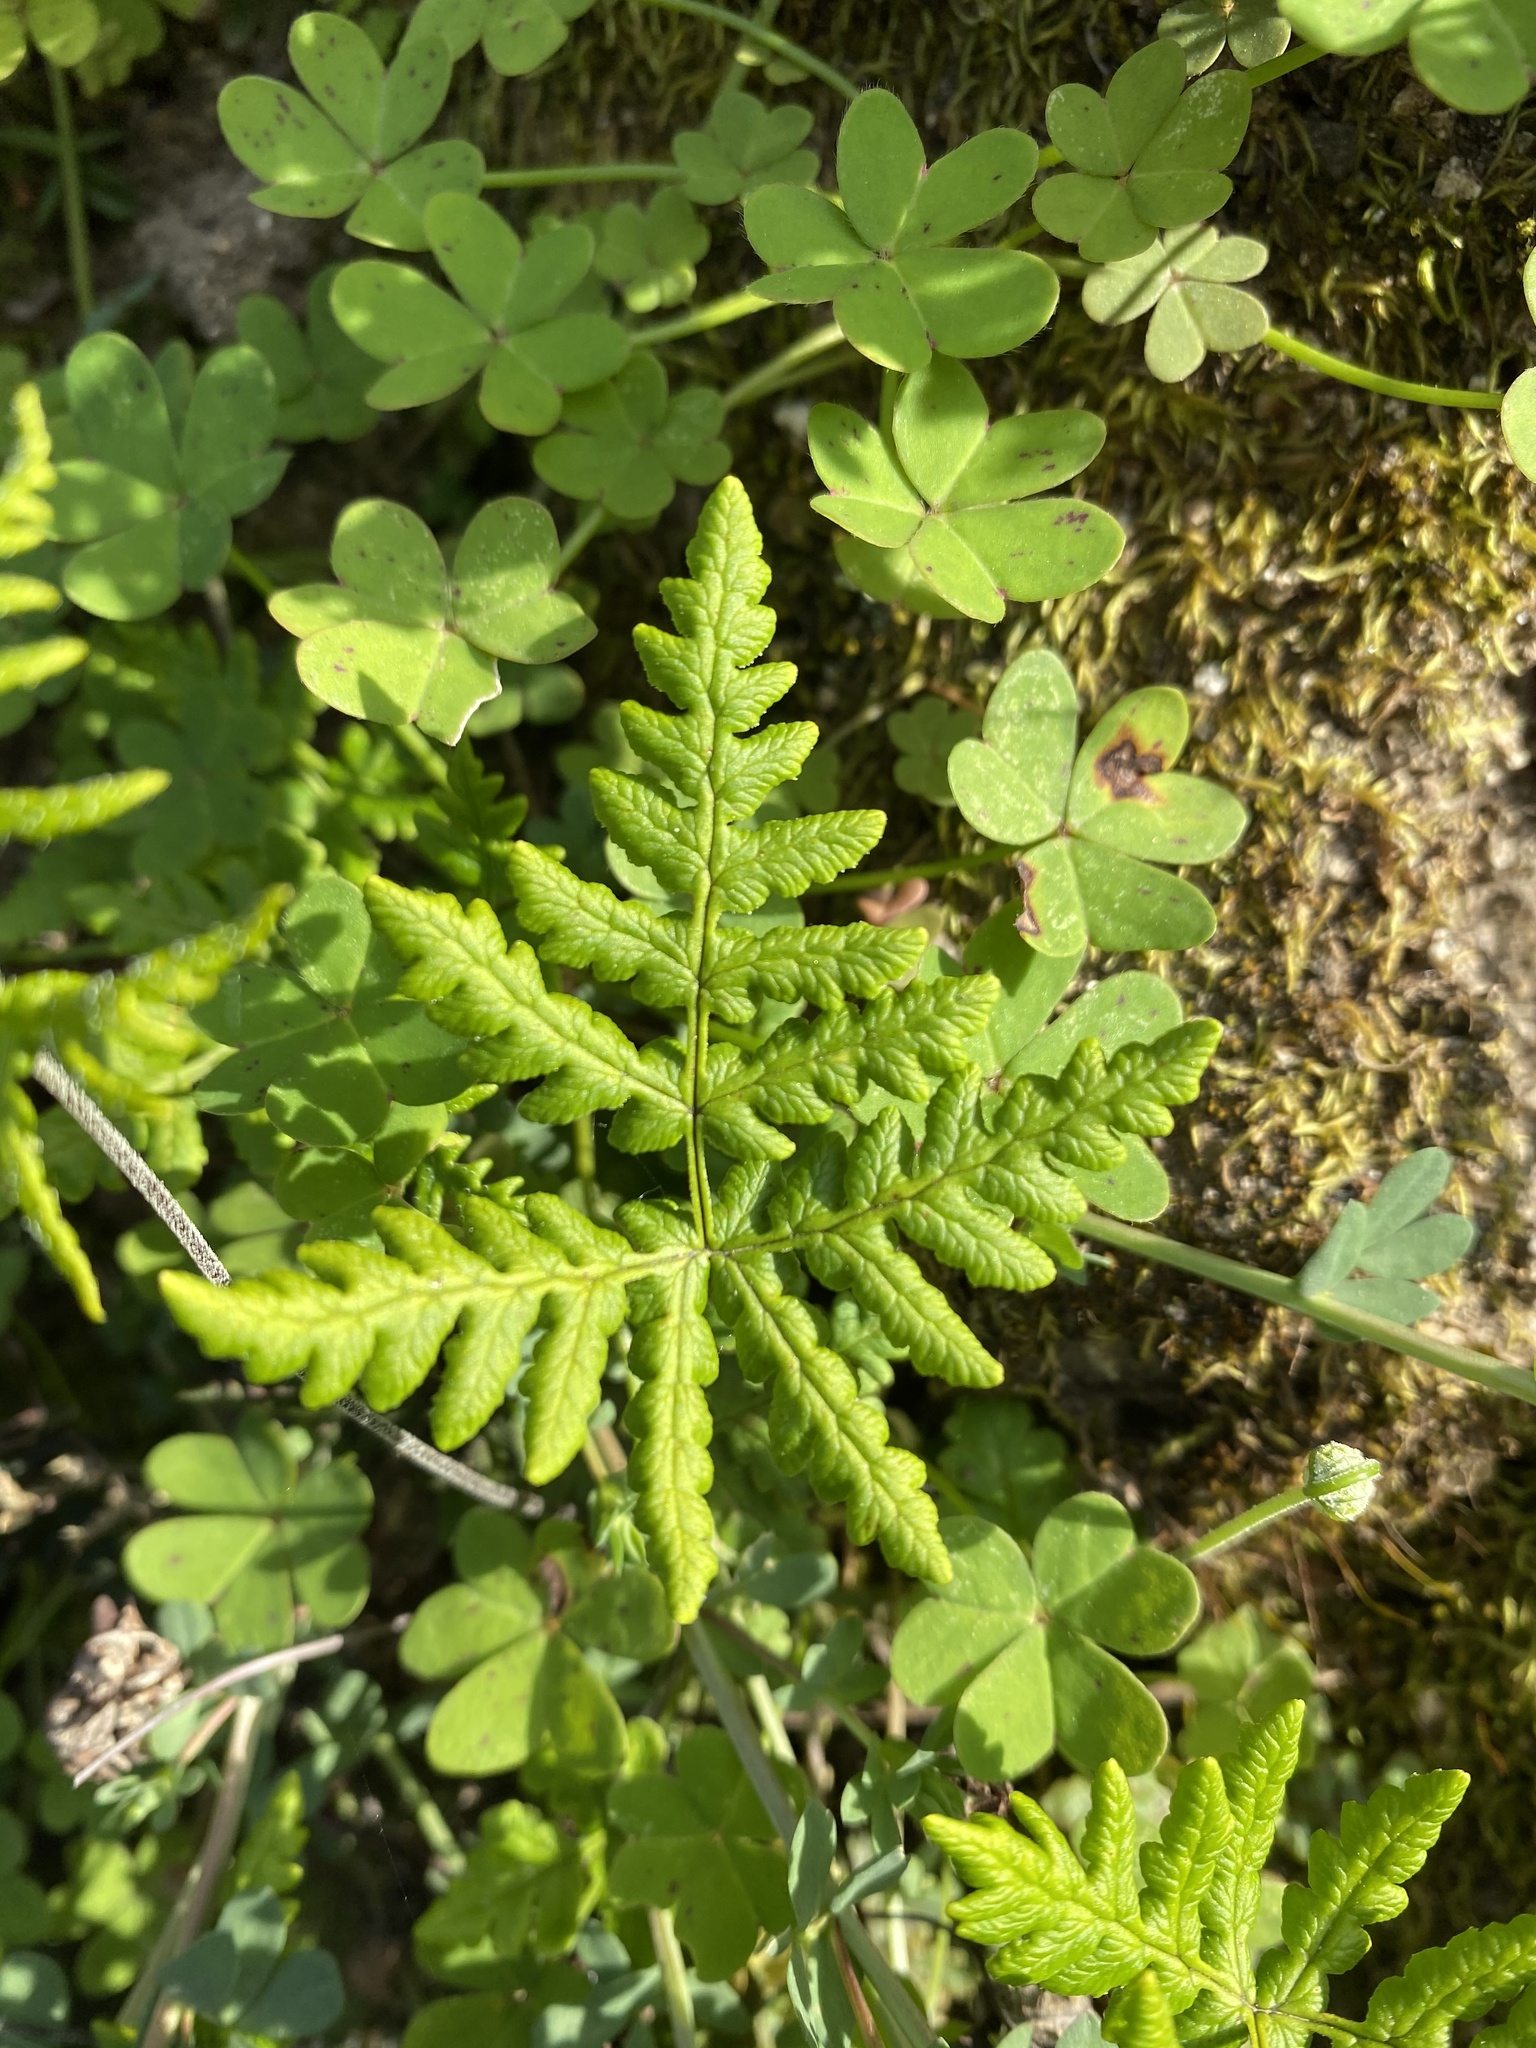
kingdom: Plantae
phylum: Tracheophyta
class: Polypodiopsida
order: Polypodiales
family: Pteridaceae
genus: Pentagramma
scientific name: Pentagramma triangularis
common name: Gold fern
